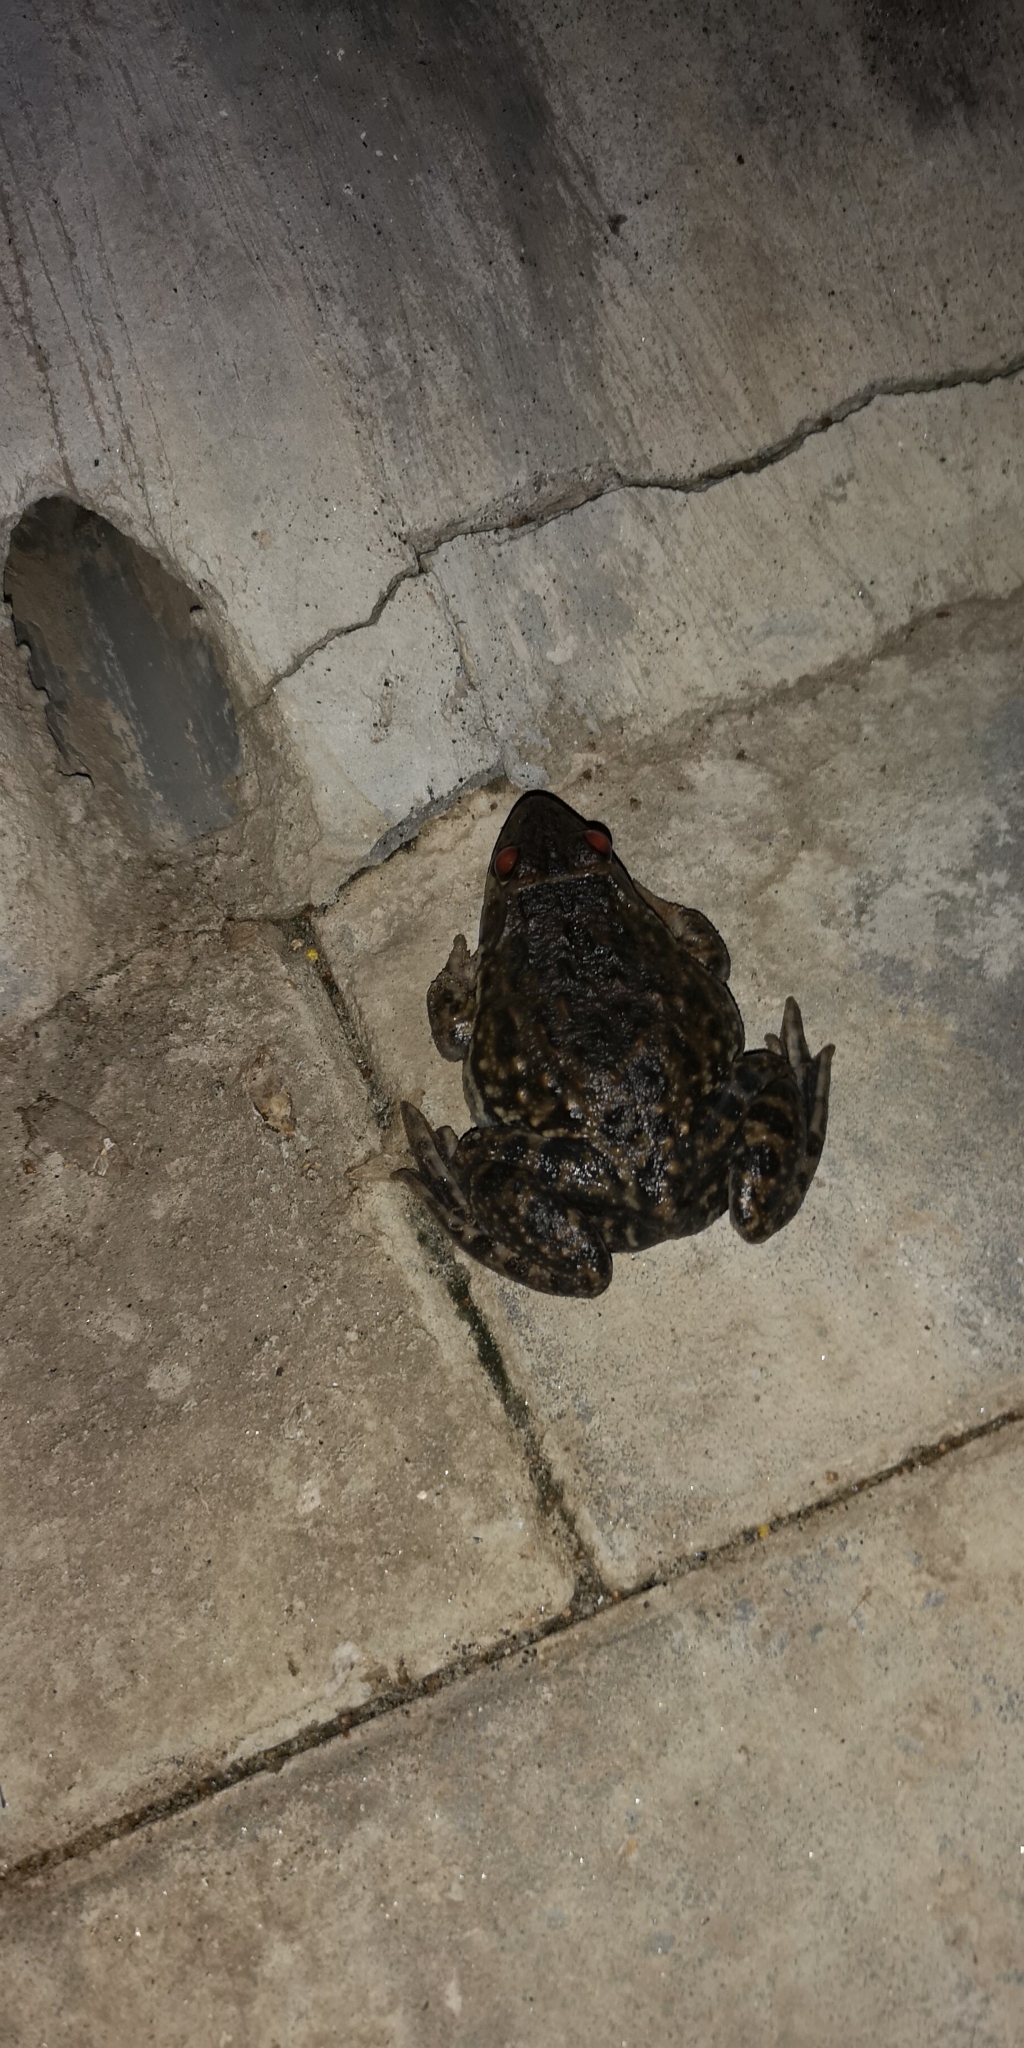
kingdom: Animalia
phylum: Chordata
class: Amphibia
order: Anura
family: Dicroglossidae
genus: Hoplobatrachus
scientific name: Hoplobatrachus occipitalis
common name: Eastern groove-crowned bullfrog
